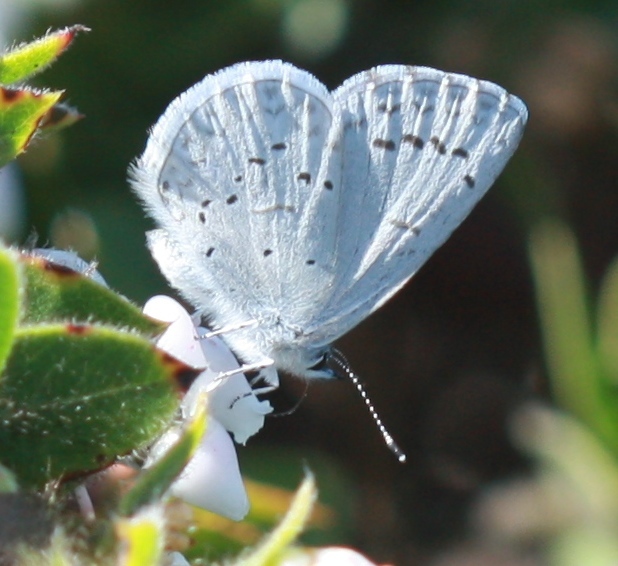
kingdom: Animalia
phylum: Arthropoda
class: Insecta
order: Lepidoptera
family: Lycaenidae
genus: Celastrina
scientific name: Celastrina ladon
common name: Spring azure
